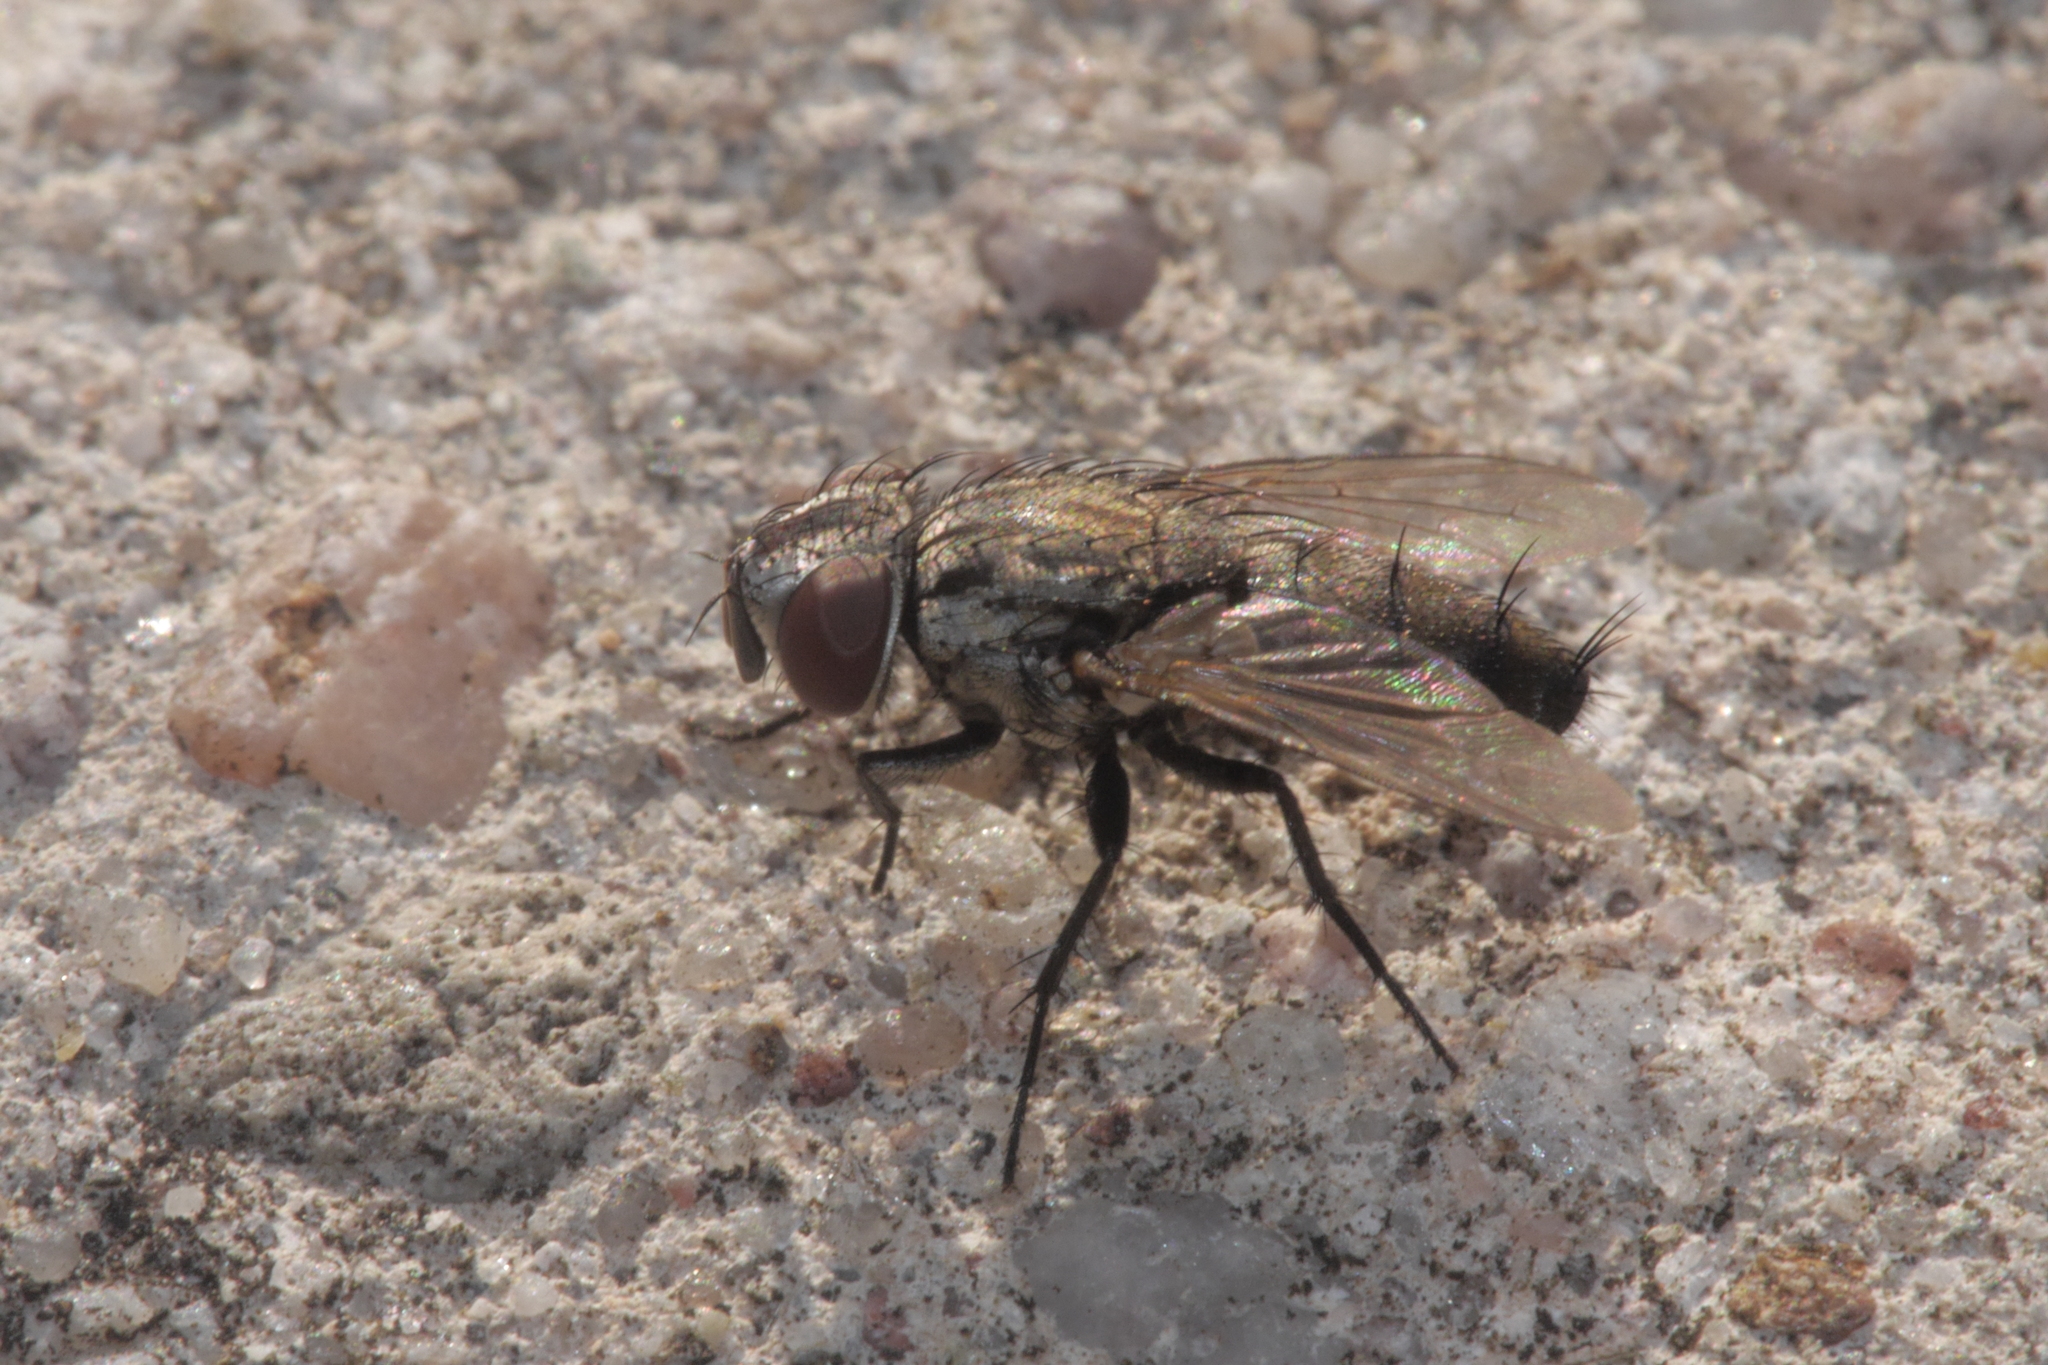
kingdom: Animalia
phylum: Arthropoda
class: Insecta
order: Diptera
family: Sarcophagidae
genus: Metopia
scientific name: Metopia
